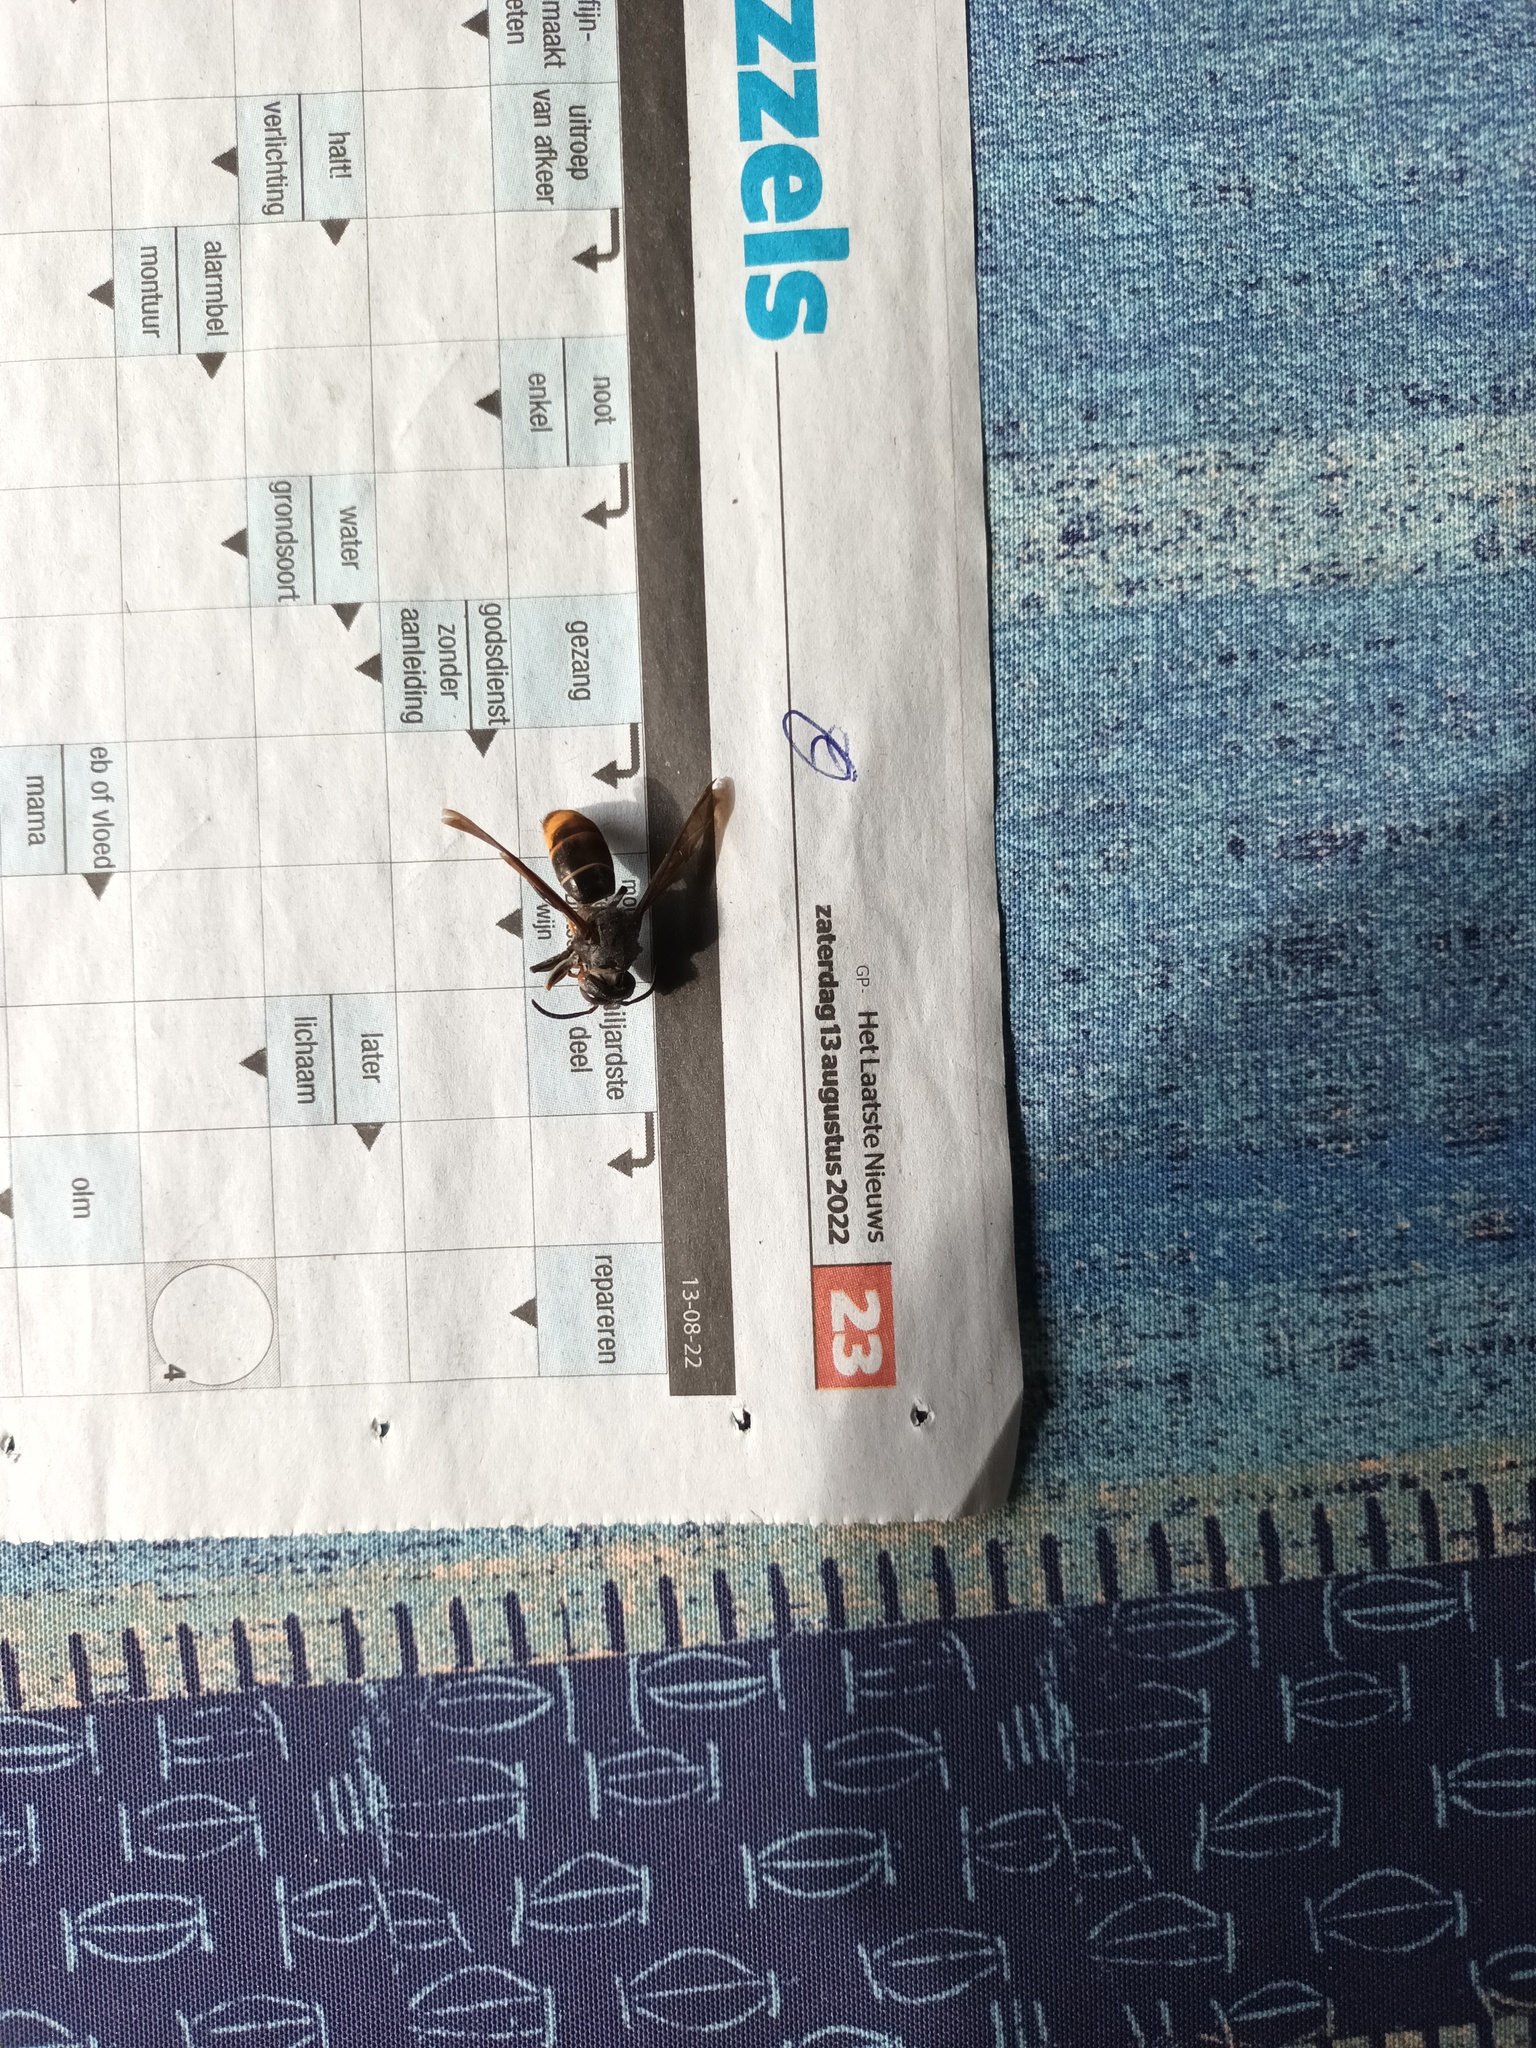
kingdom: Animalia
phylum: Arthropoda
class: Insecta
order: Hymenoptera
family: Vespidae
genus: Vespa
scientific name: Vespa velutina
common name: Asian hornet
